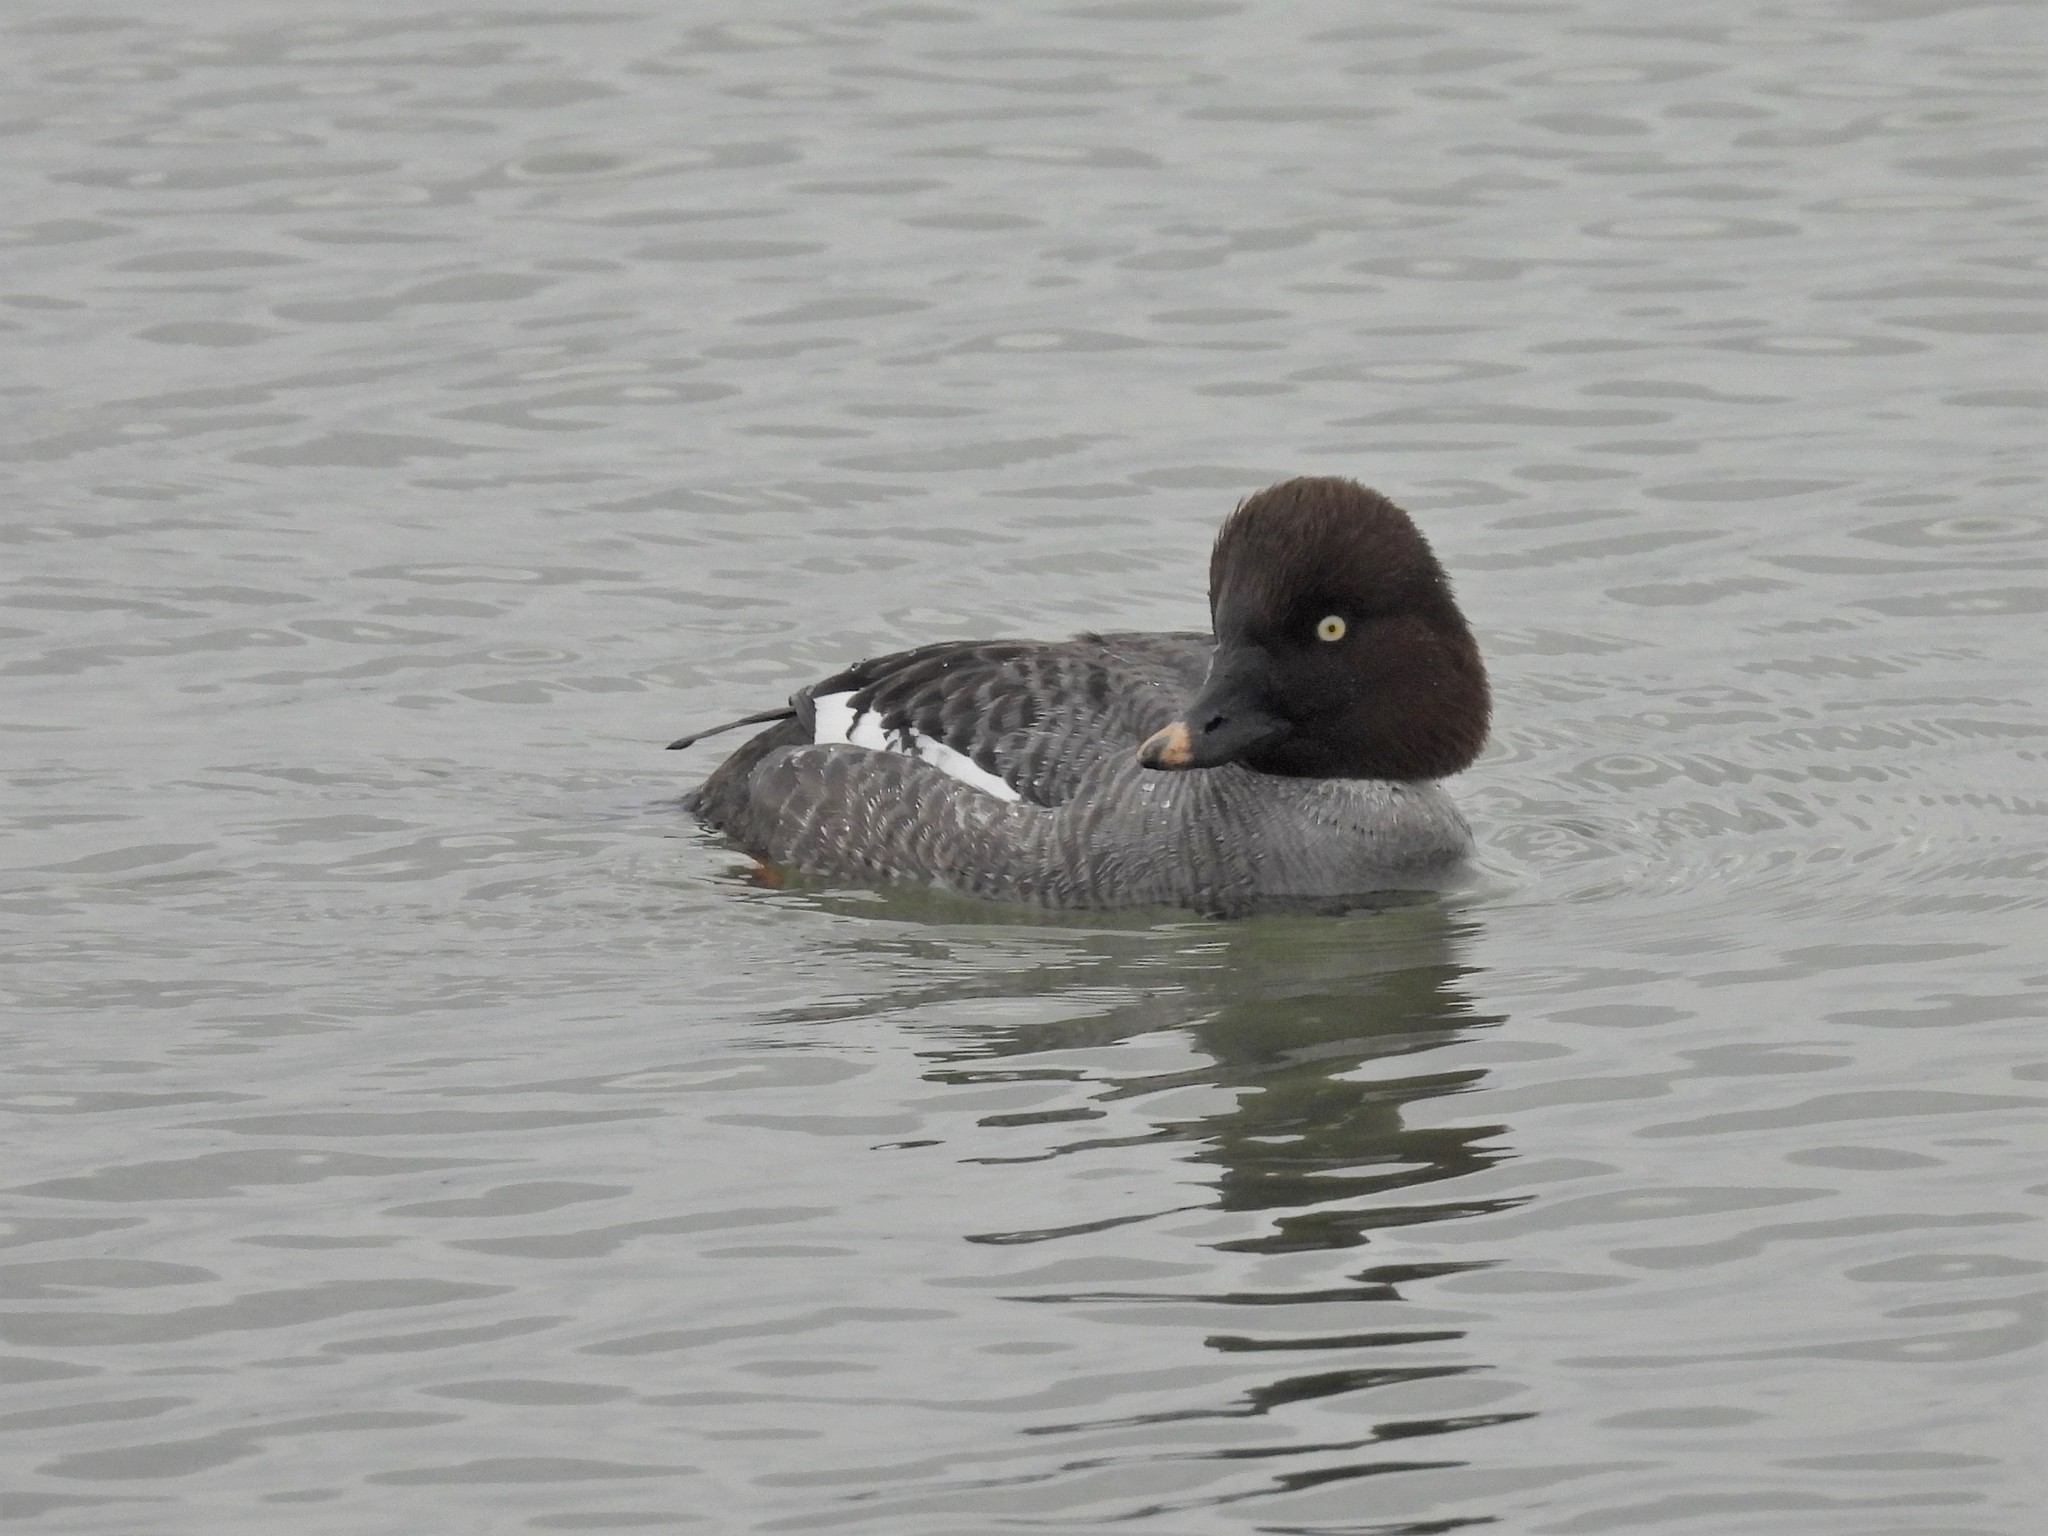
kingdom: Animalia
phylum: Chordata
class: Aves
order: Anseriformes
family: Anatidae
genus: Bucephala
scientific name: Bucephala clangula
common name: Common goldeneye
